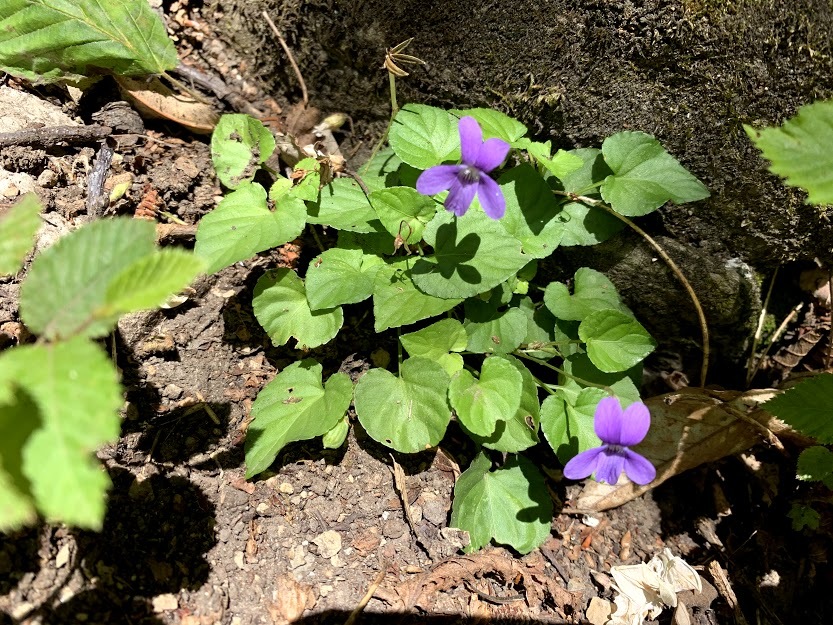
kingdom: Plantae
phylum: Tracheophyta
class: Magnoliopsida
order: Malpighiales
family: Violaceae
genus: Viola
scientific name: Viola reichenbachiana
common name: Early dog-violet
